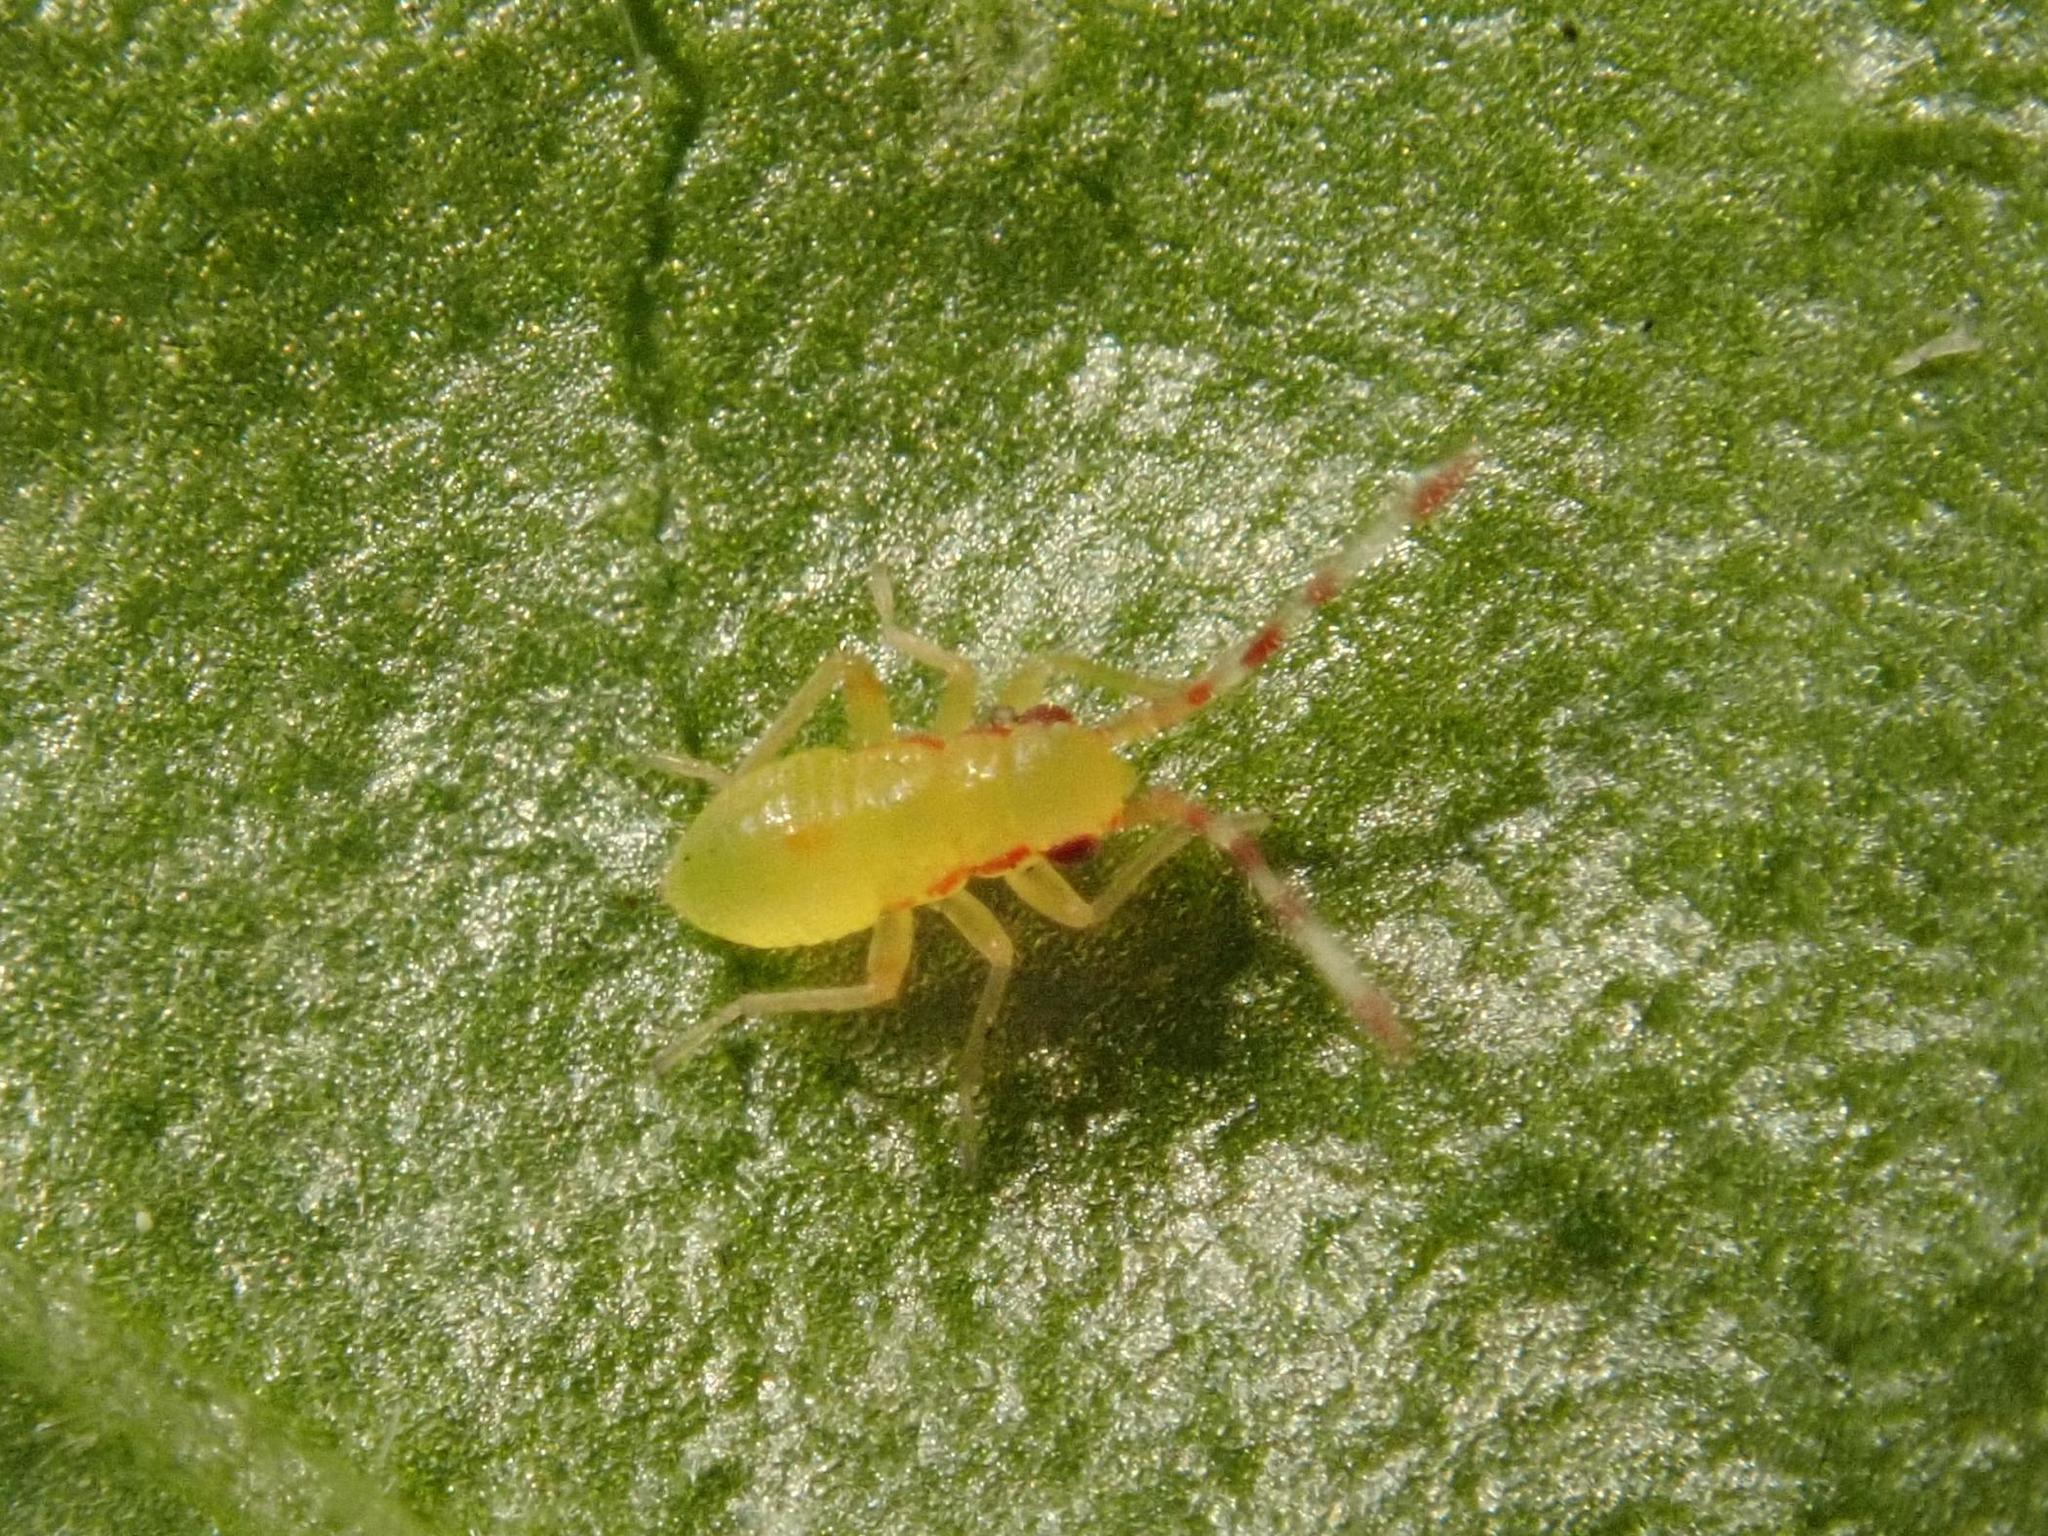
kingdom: Animalia
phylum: Arthropoda
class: Insecta
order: Hemiptera
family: Miridae
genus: Campyloneura
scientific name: Campyloneura virgula
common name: Predatory bug
